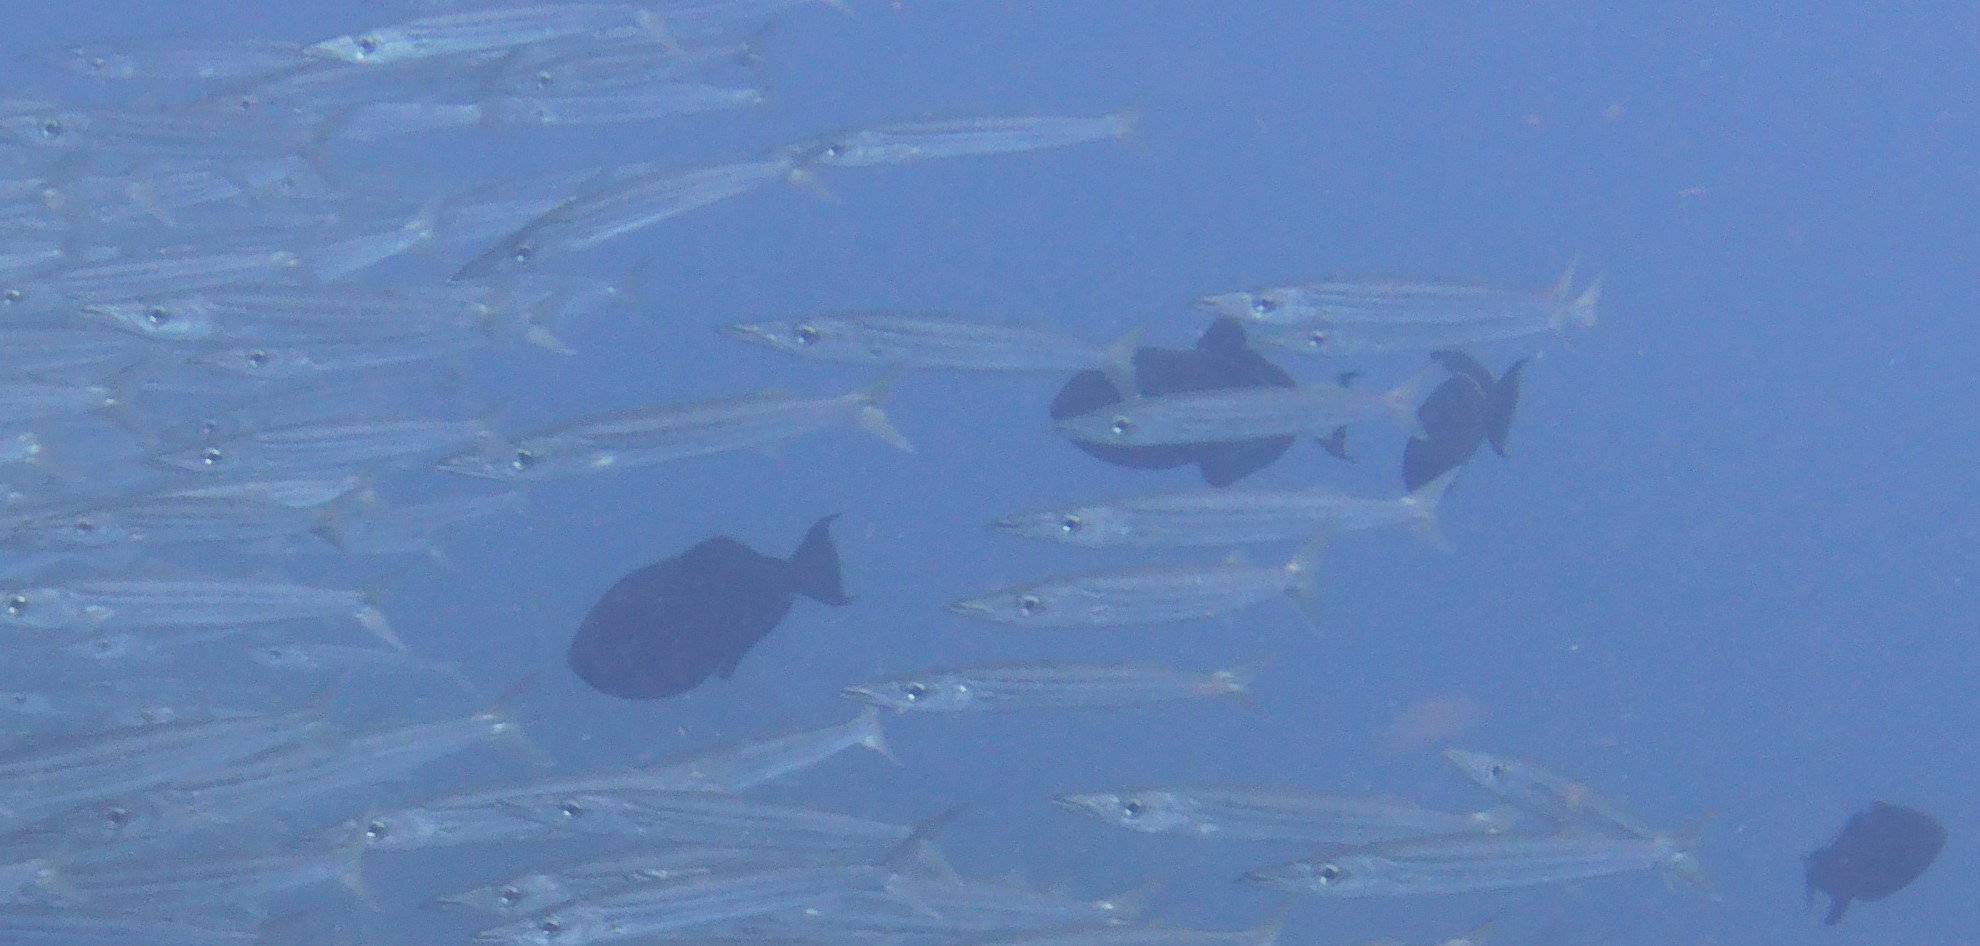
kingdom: Animalia
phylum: Chordata
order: Perciformes
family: Sphyraenidae
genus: Sphyraena
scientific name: Sphyraena borealis
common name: Northern sennet
